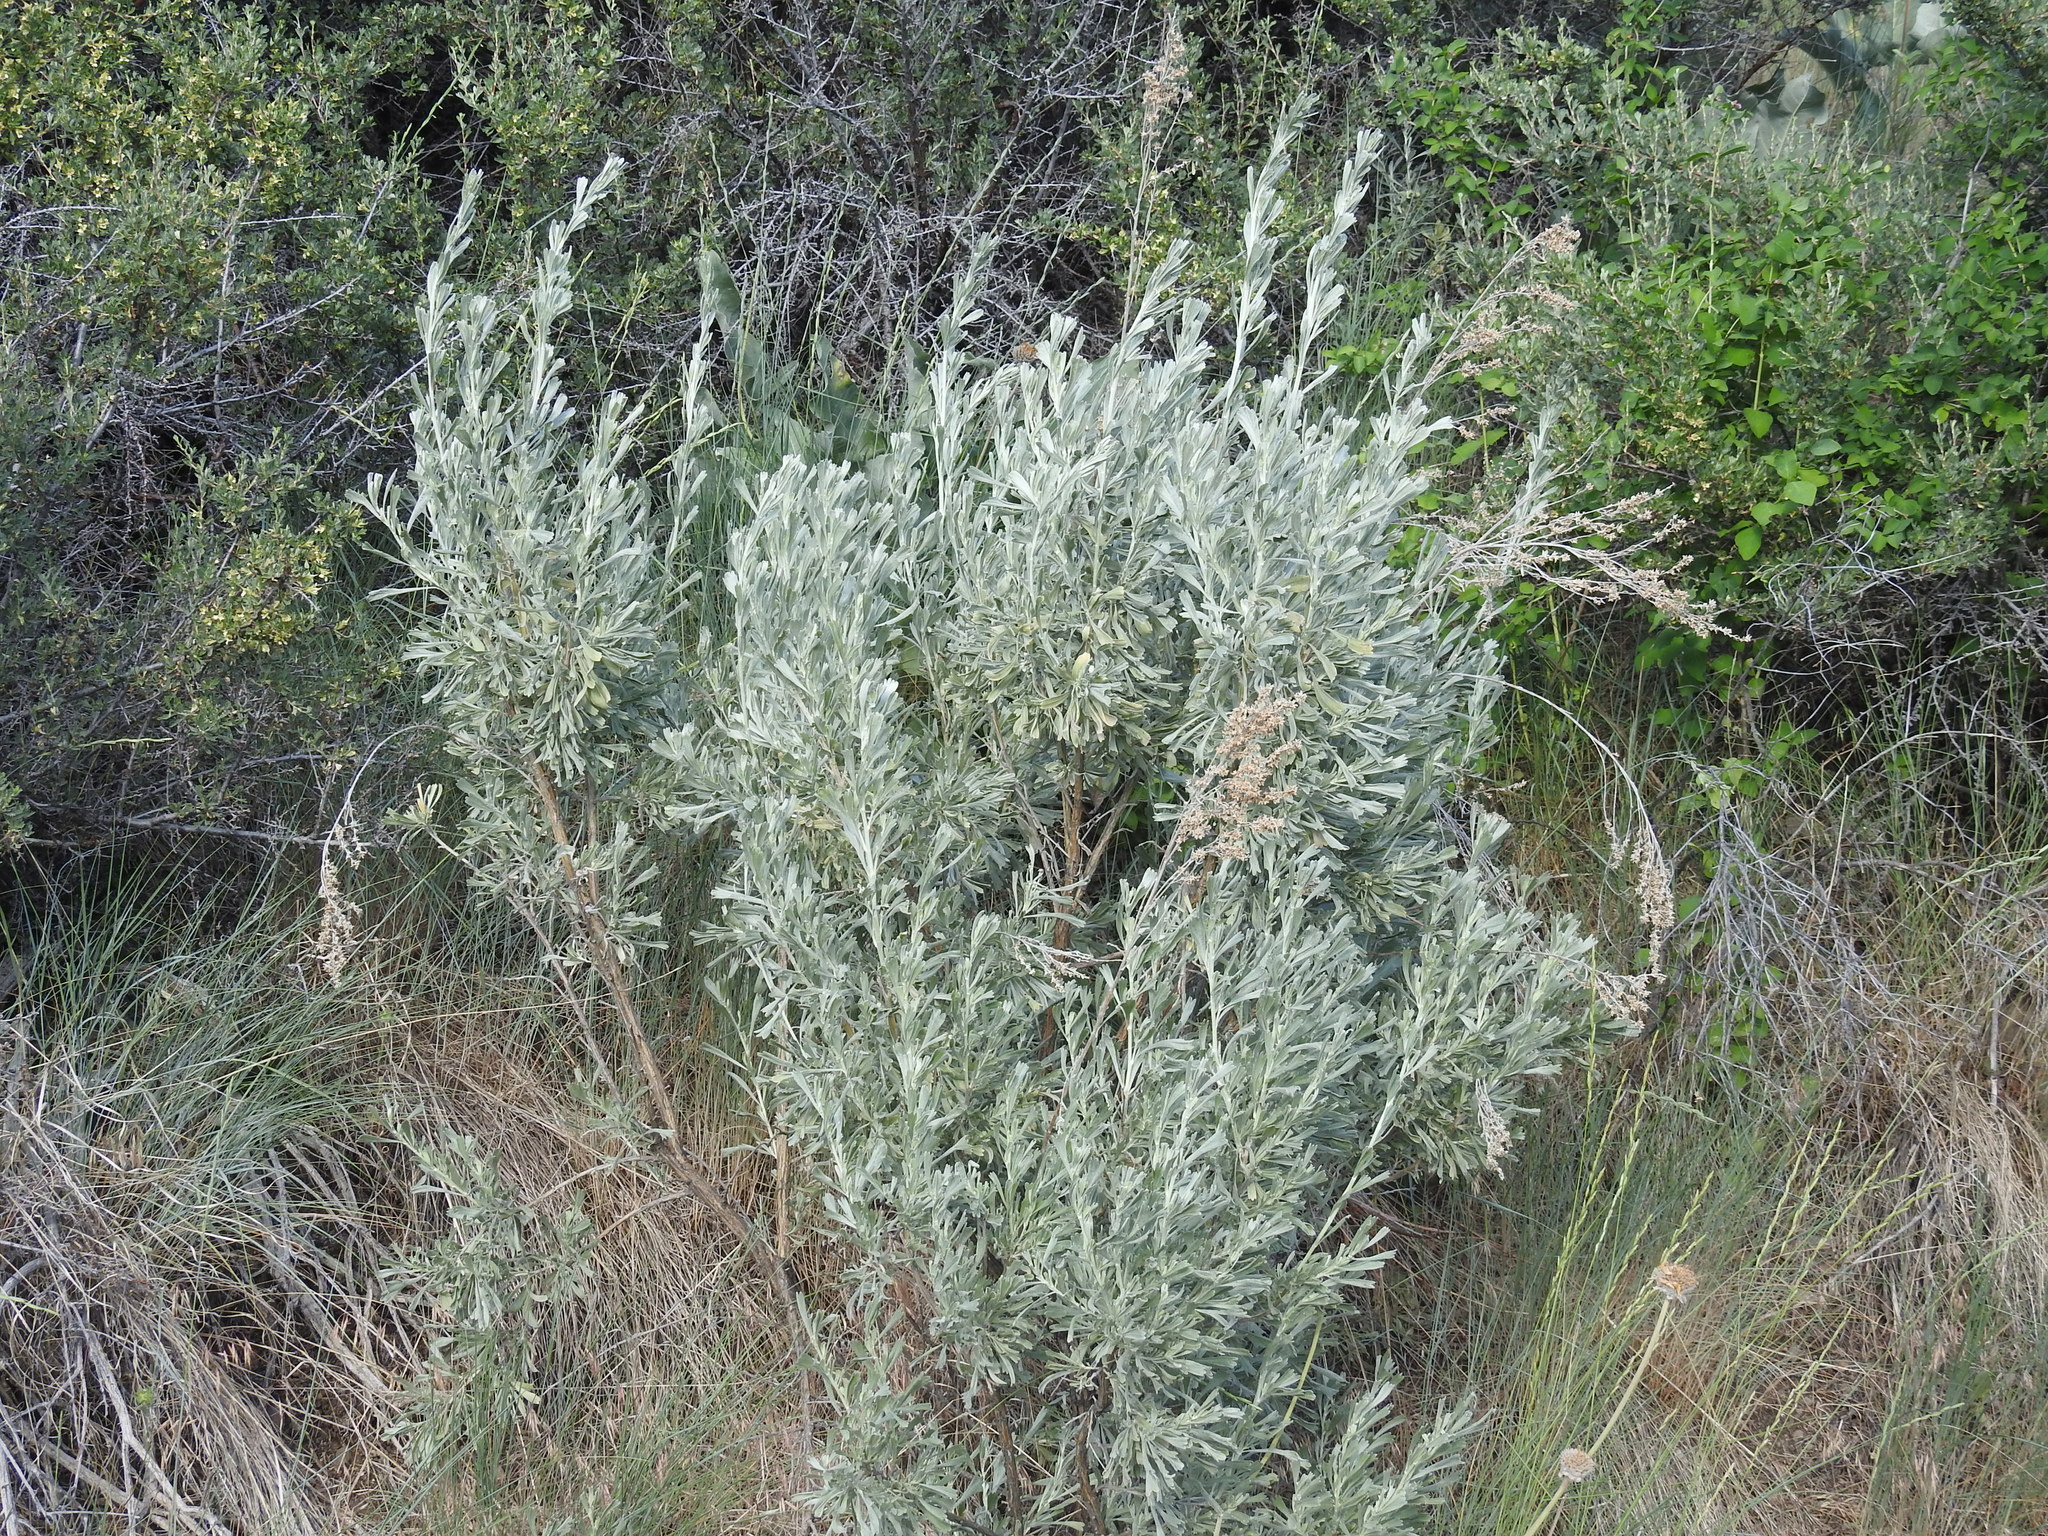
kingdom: Plantae
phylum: Tracheophyta
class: Magnoliopsida
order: Asterales
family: Asteraceae
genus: Artemisia
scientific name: Artemisia tridentata
